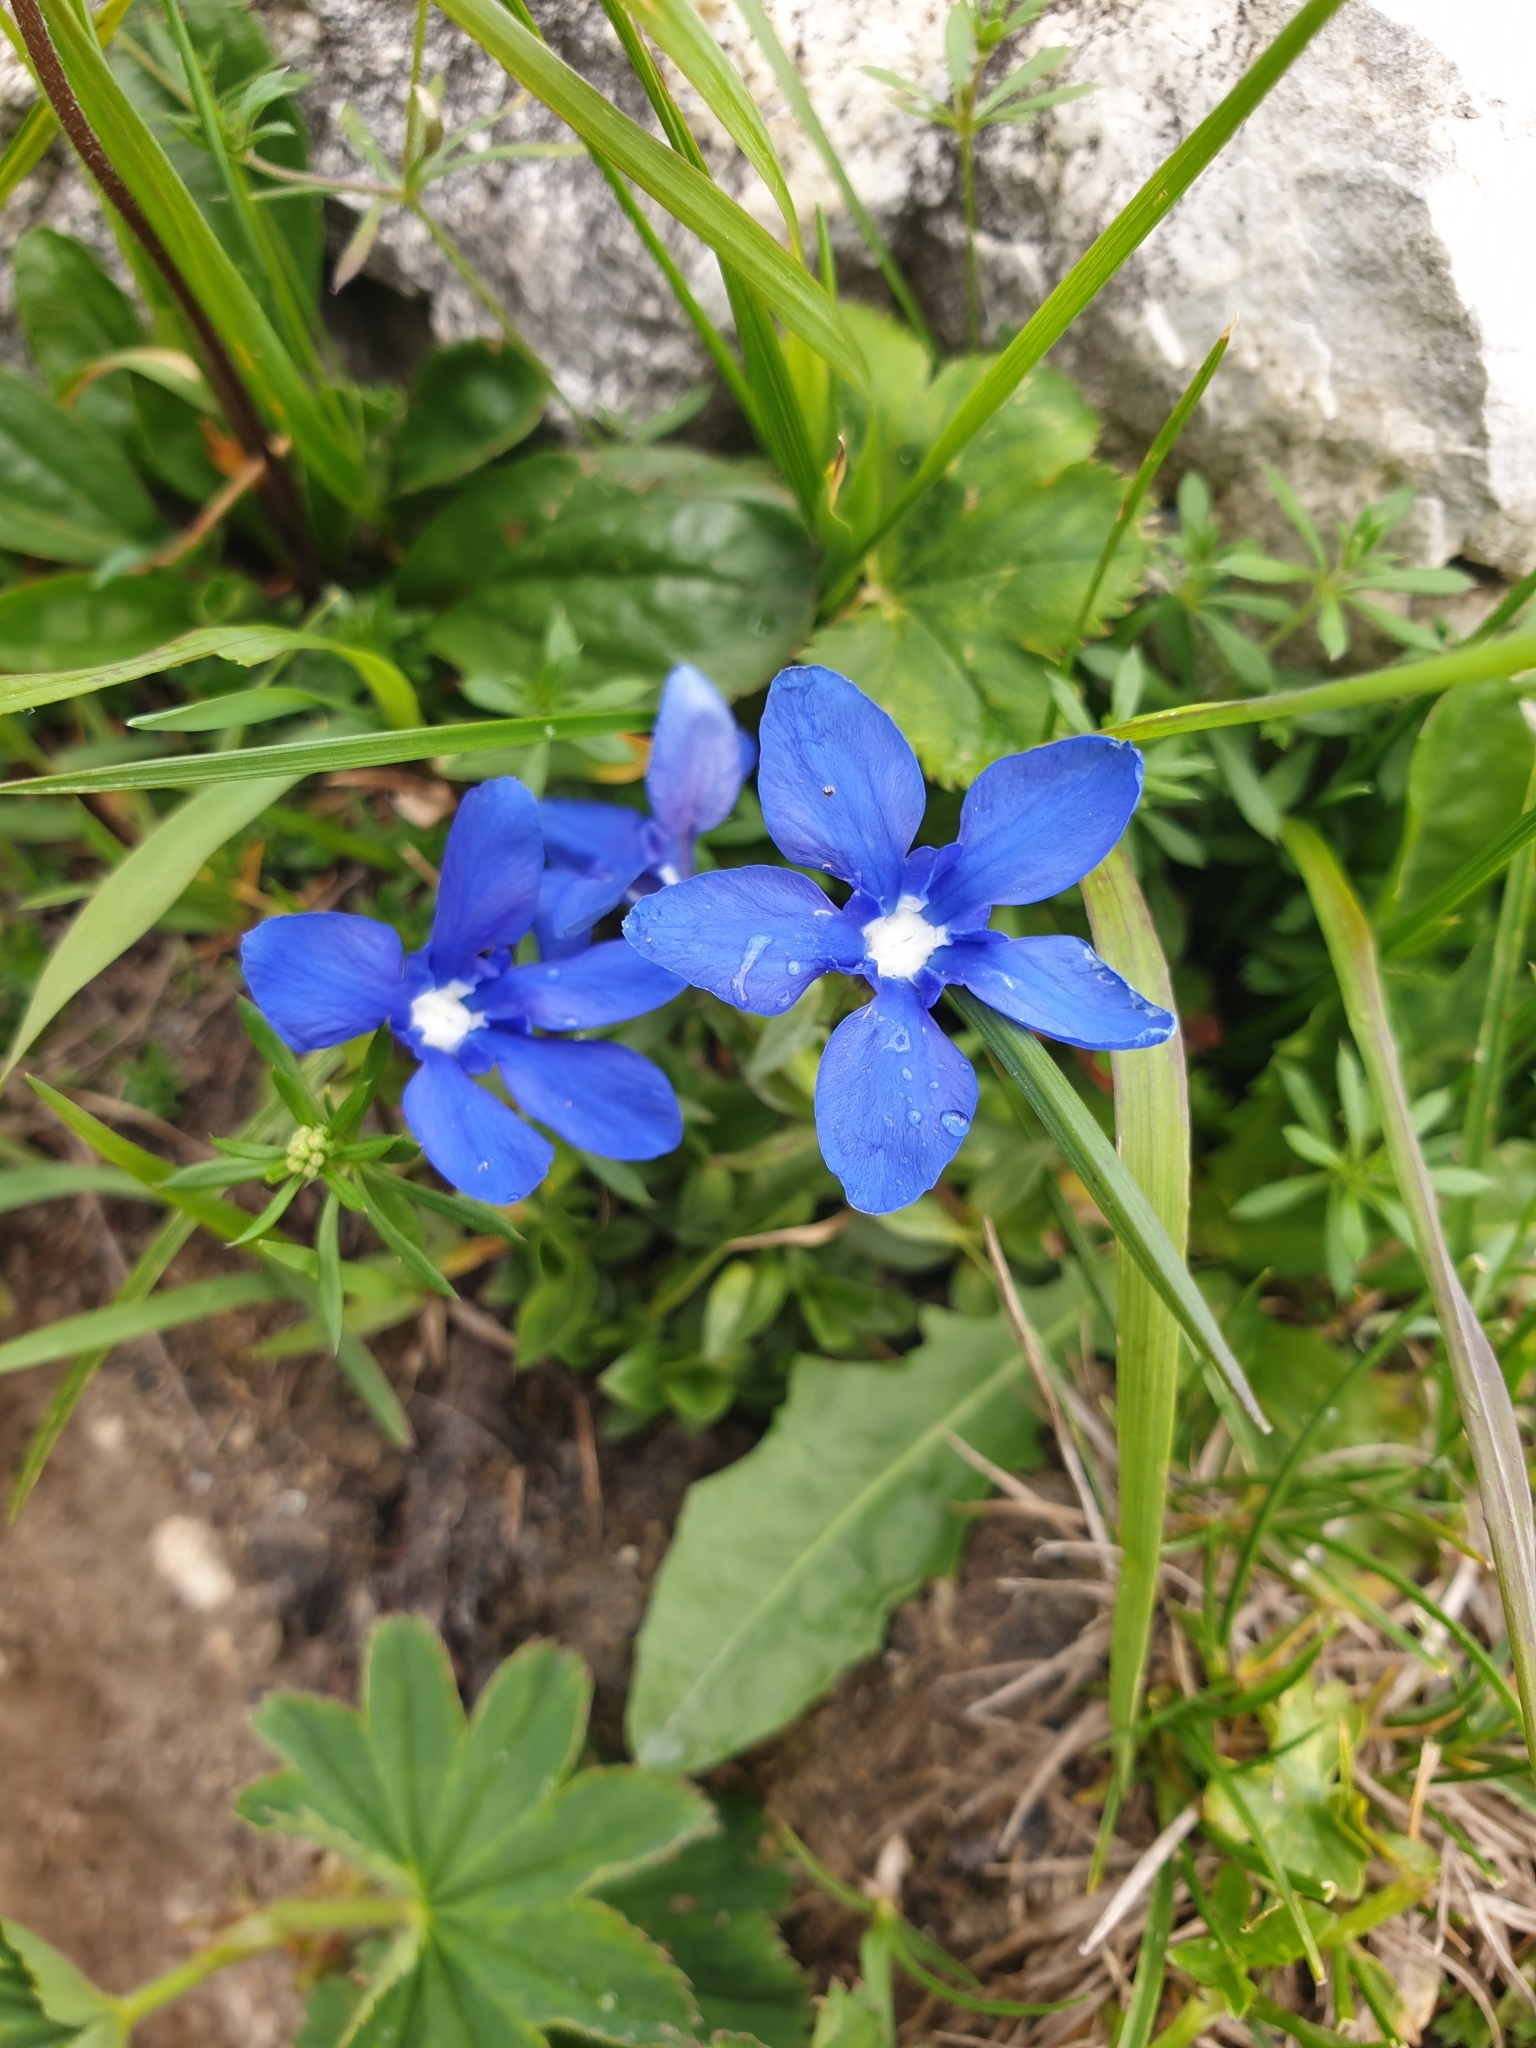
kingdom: Plantae
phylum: Tracheophyta
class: Magnoliopsida
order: Gentianales
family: Gentianaceae
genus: Gentiana
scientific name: Gentiana verna
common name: Spring gentian
